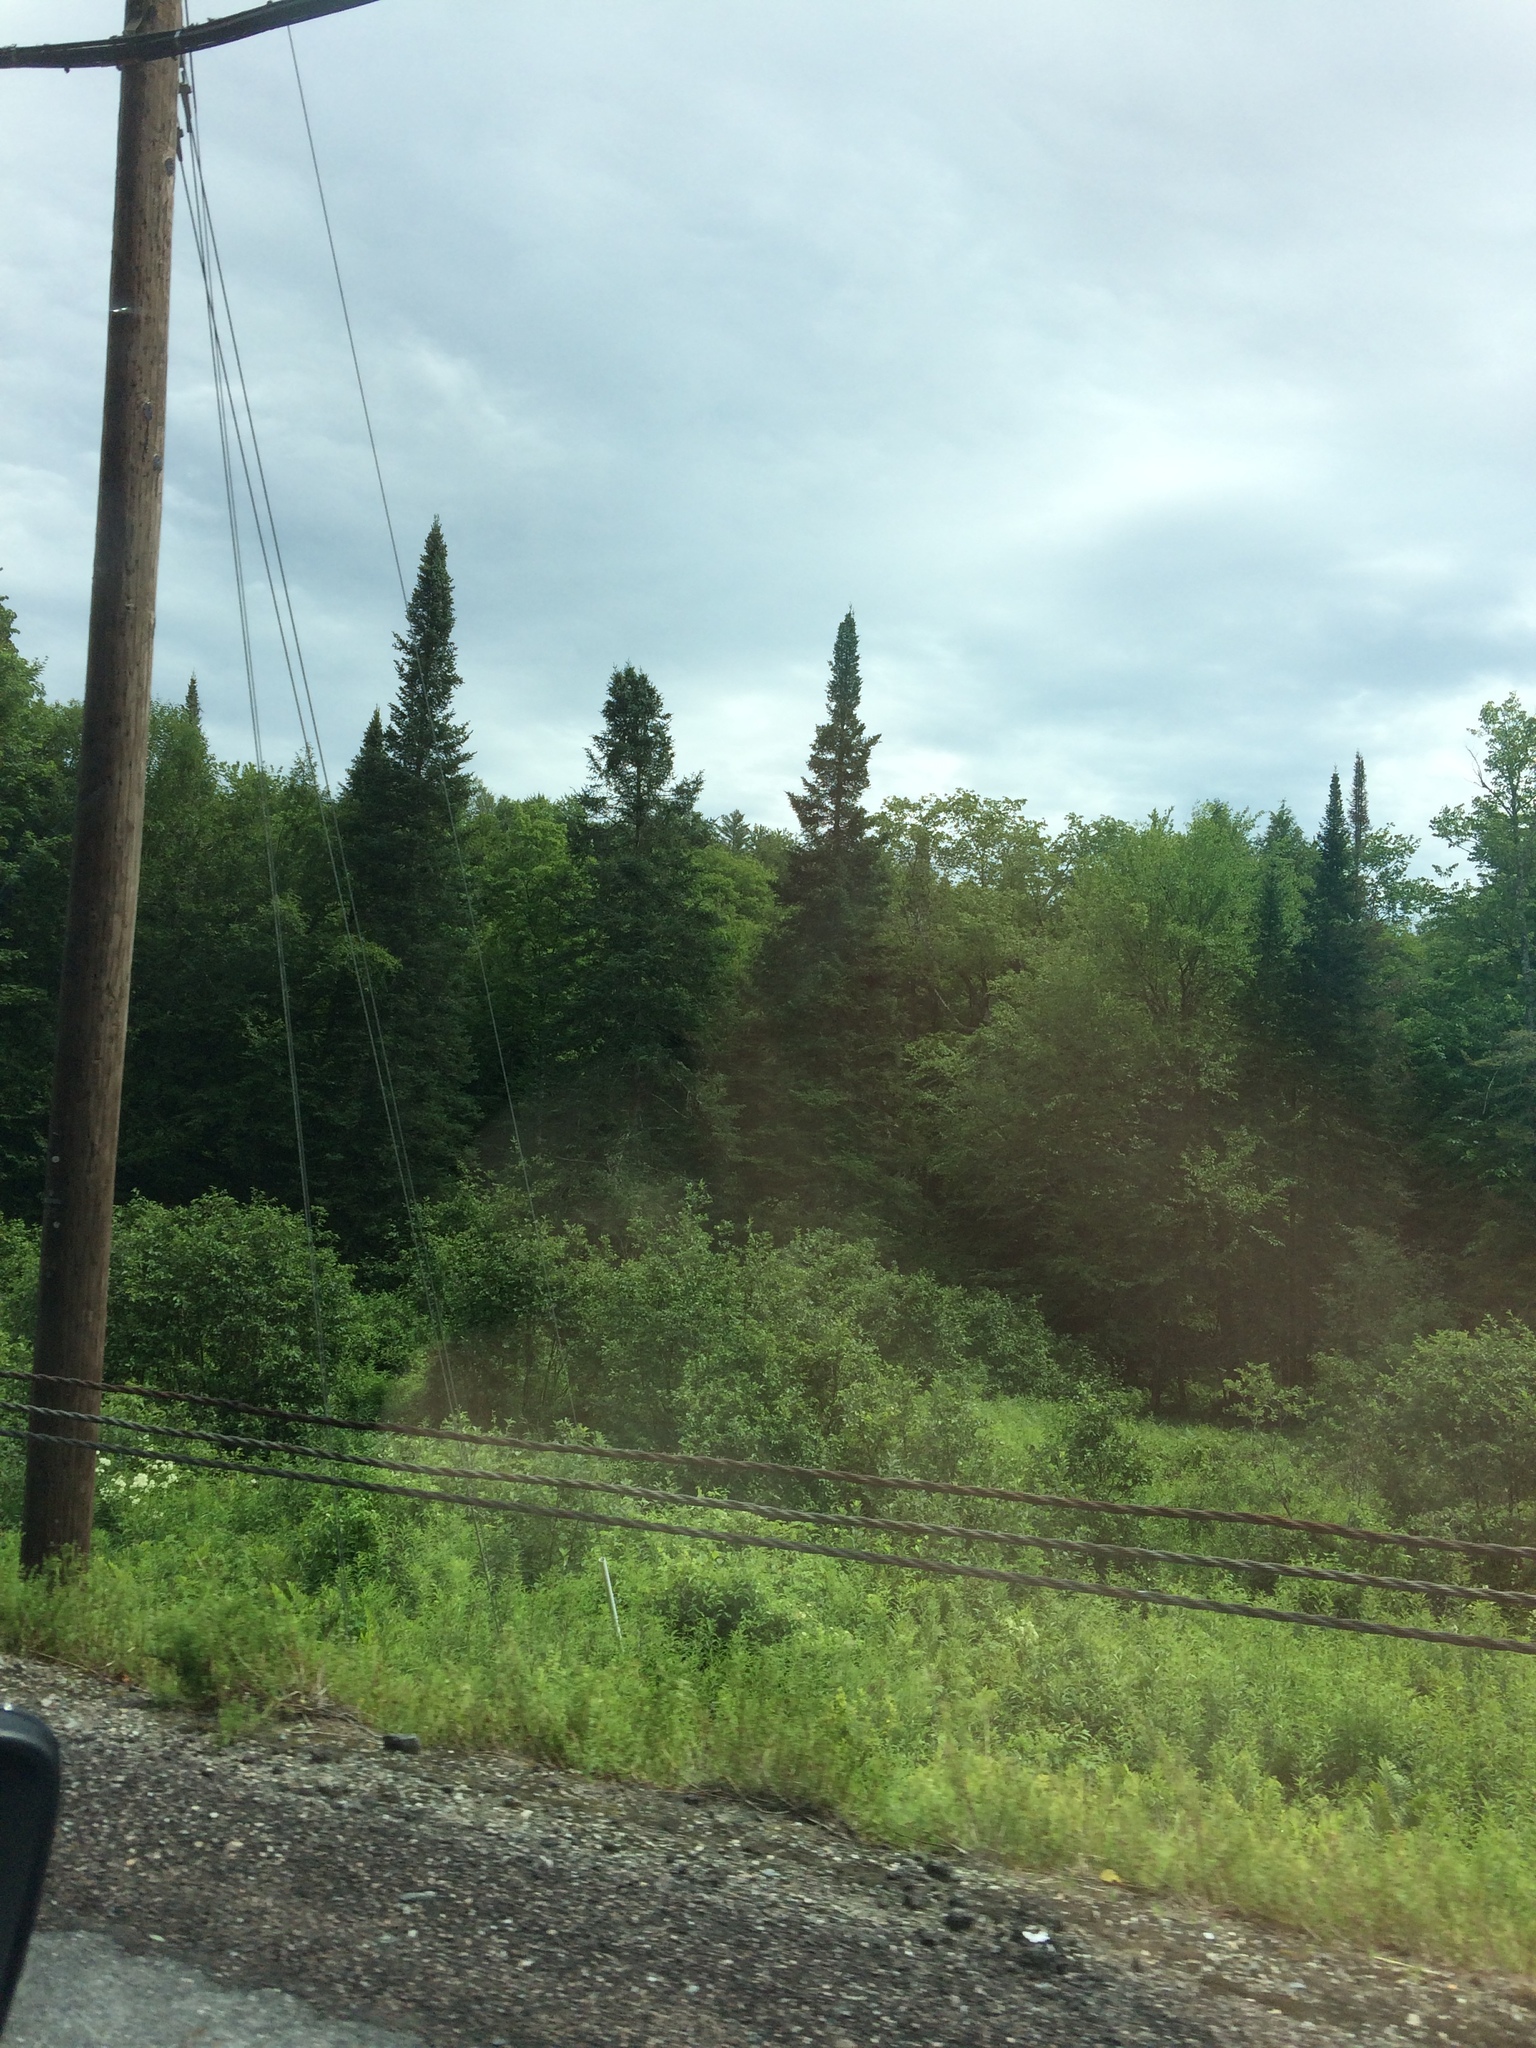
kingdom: Plantae
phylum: Tracheophyta
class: Pinopsida
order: Pinales
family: Pinaceae
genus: Abies
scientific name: Abies balsamea
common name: Balsam fir
